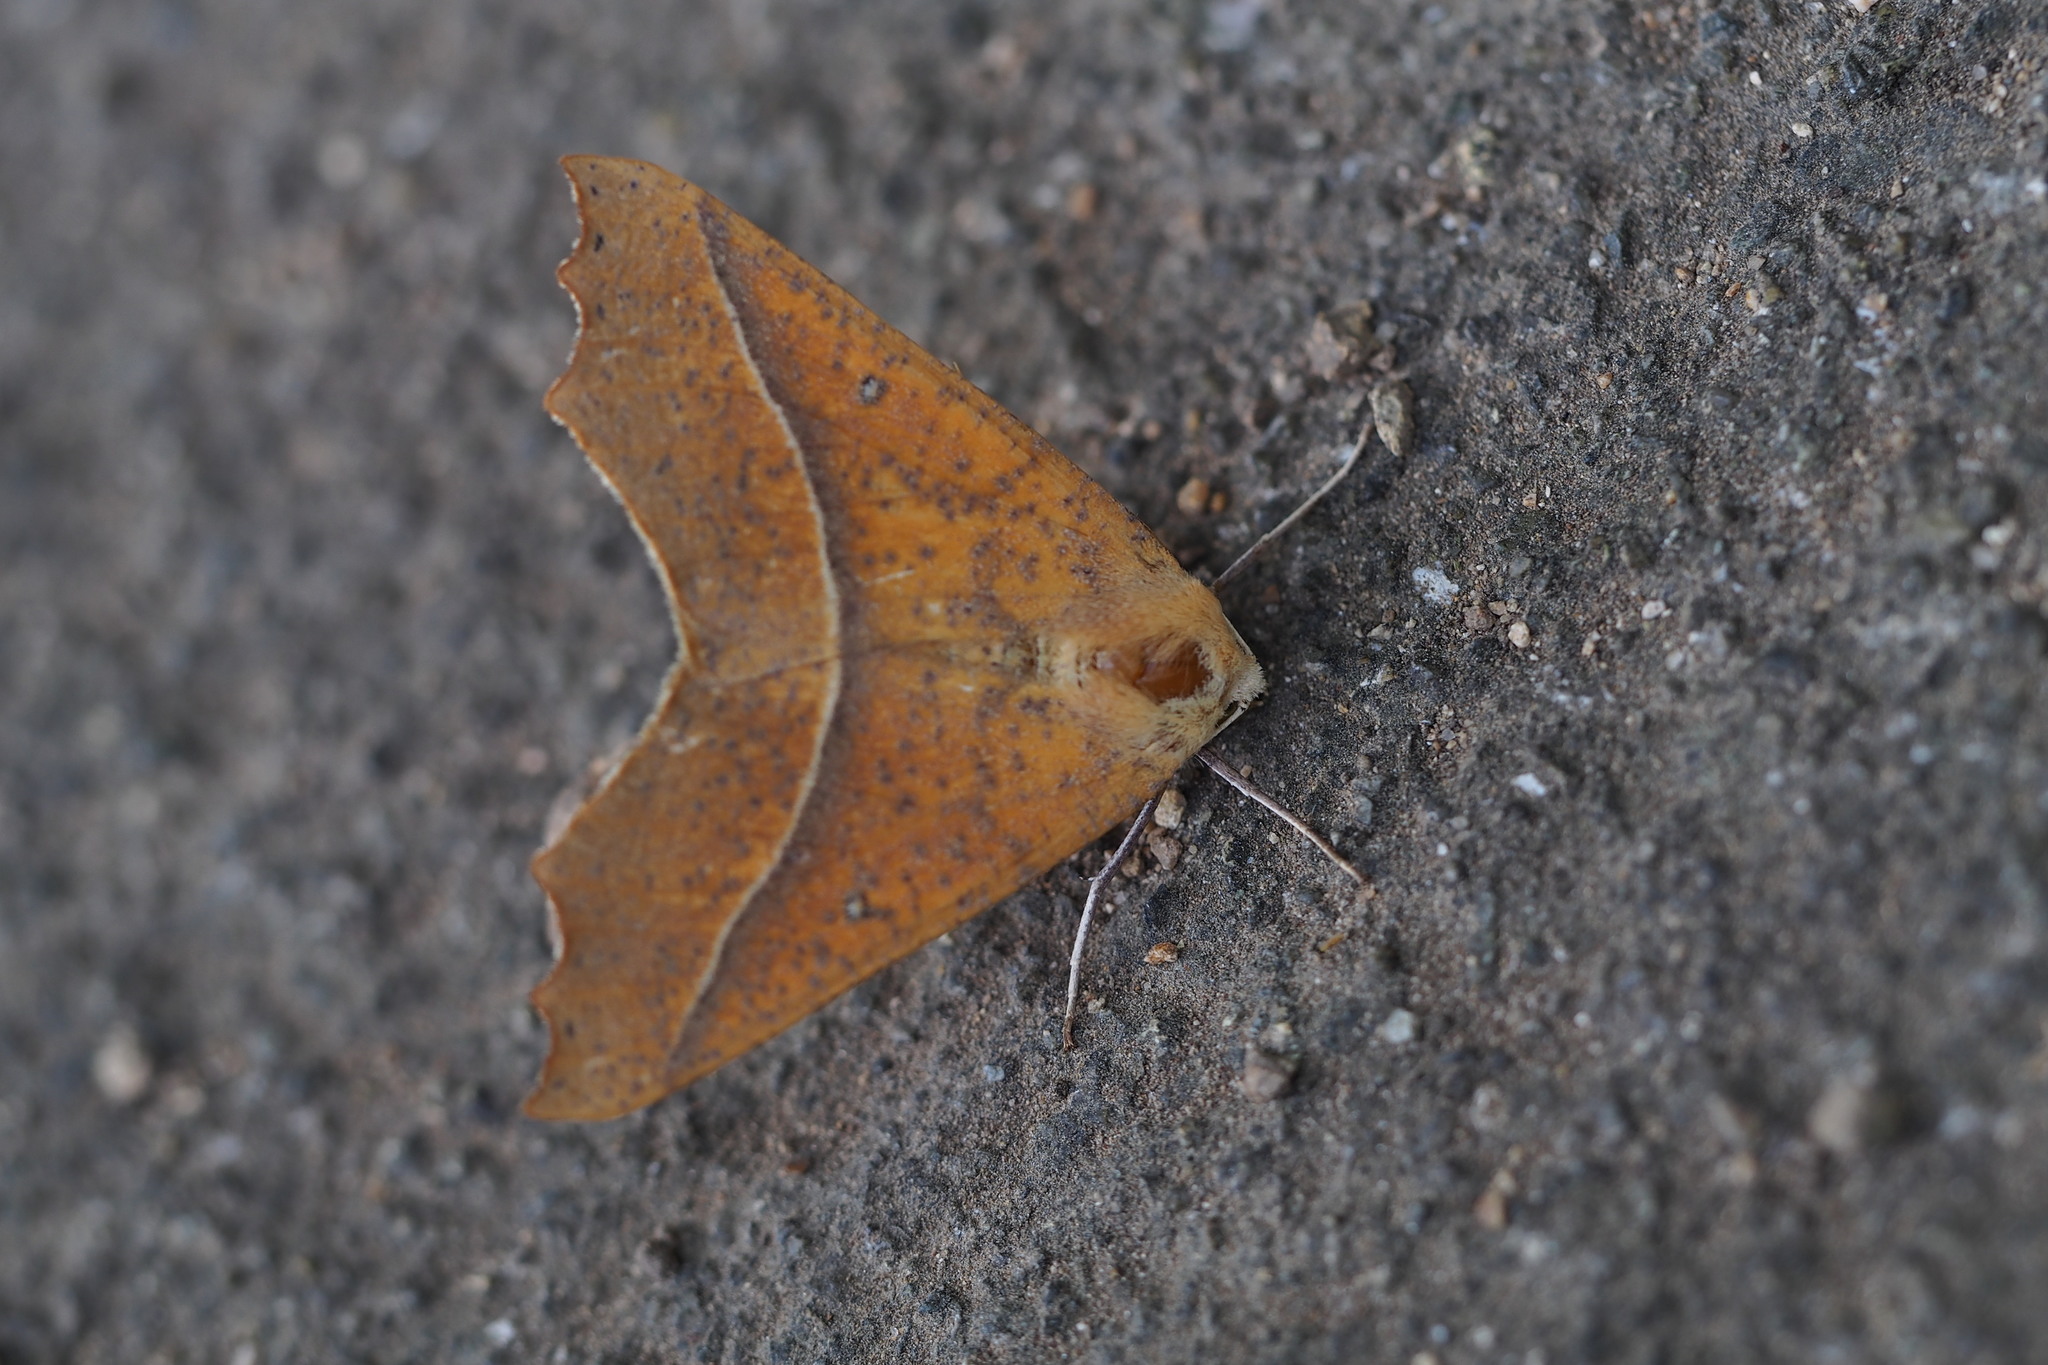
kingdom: Animalia
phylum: Arthropoda
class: Insecta
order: Lepidoptera
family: Geometridae
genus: Odontopera
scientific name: Odontopera arida
